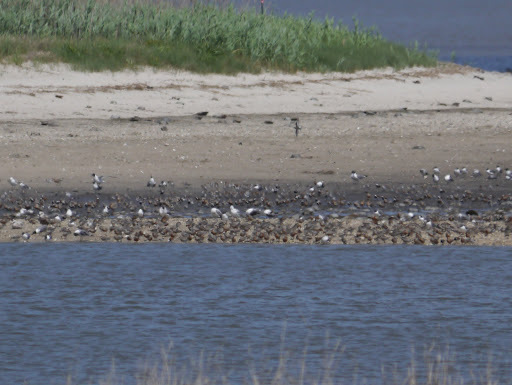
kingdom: Animalia
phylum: Chordata
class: Aves
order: Charadriiformes
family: Scolopacidae
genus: Calidris
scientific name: Calidris canutus
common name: Red knot
